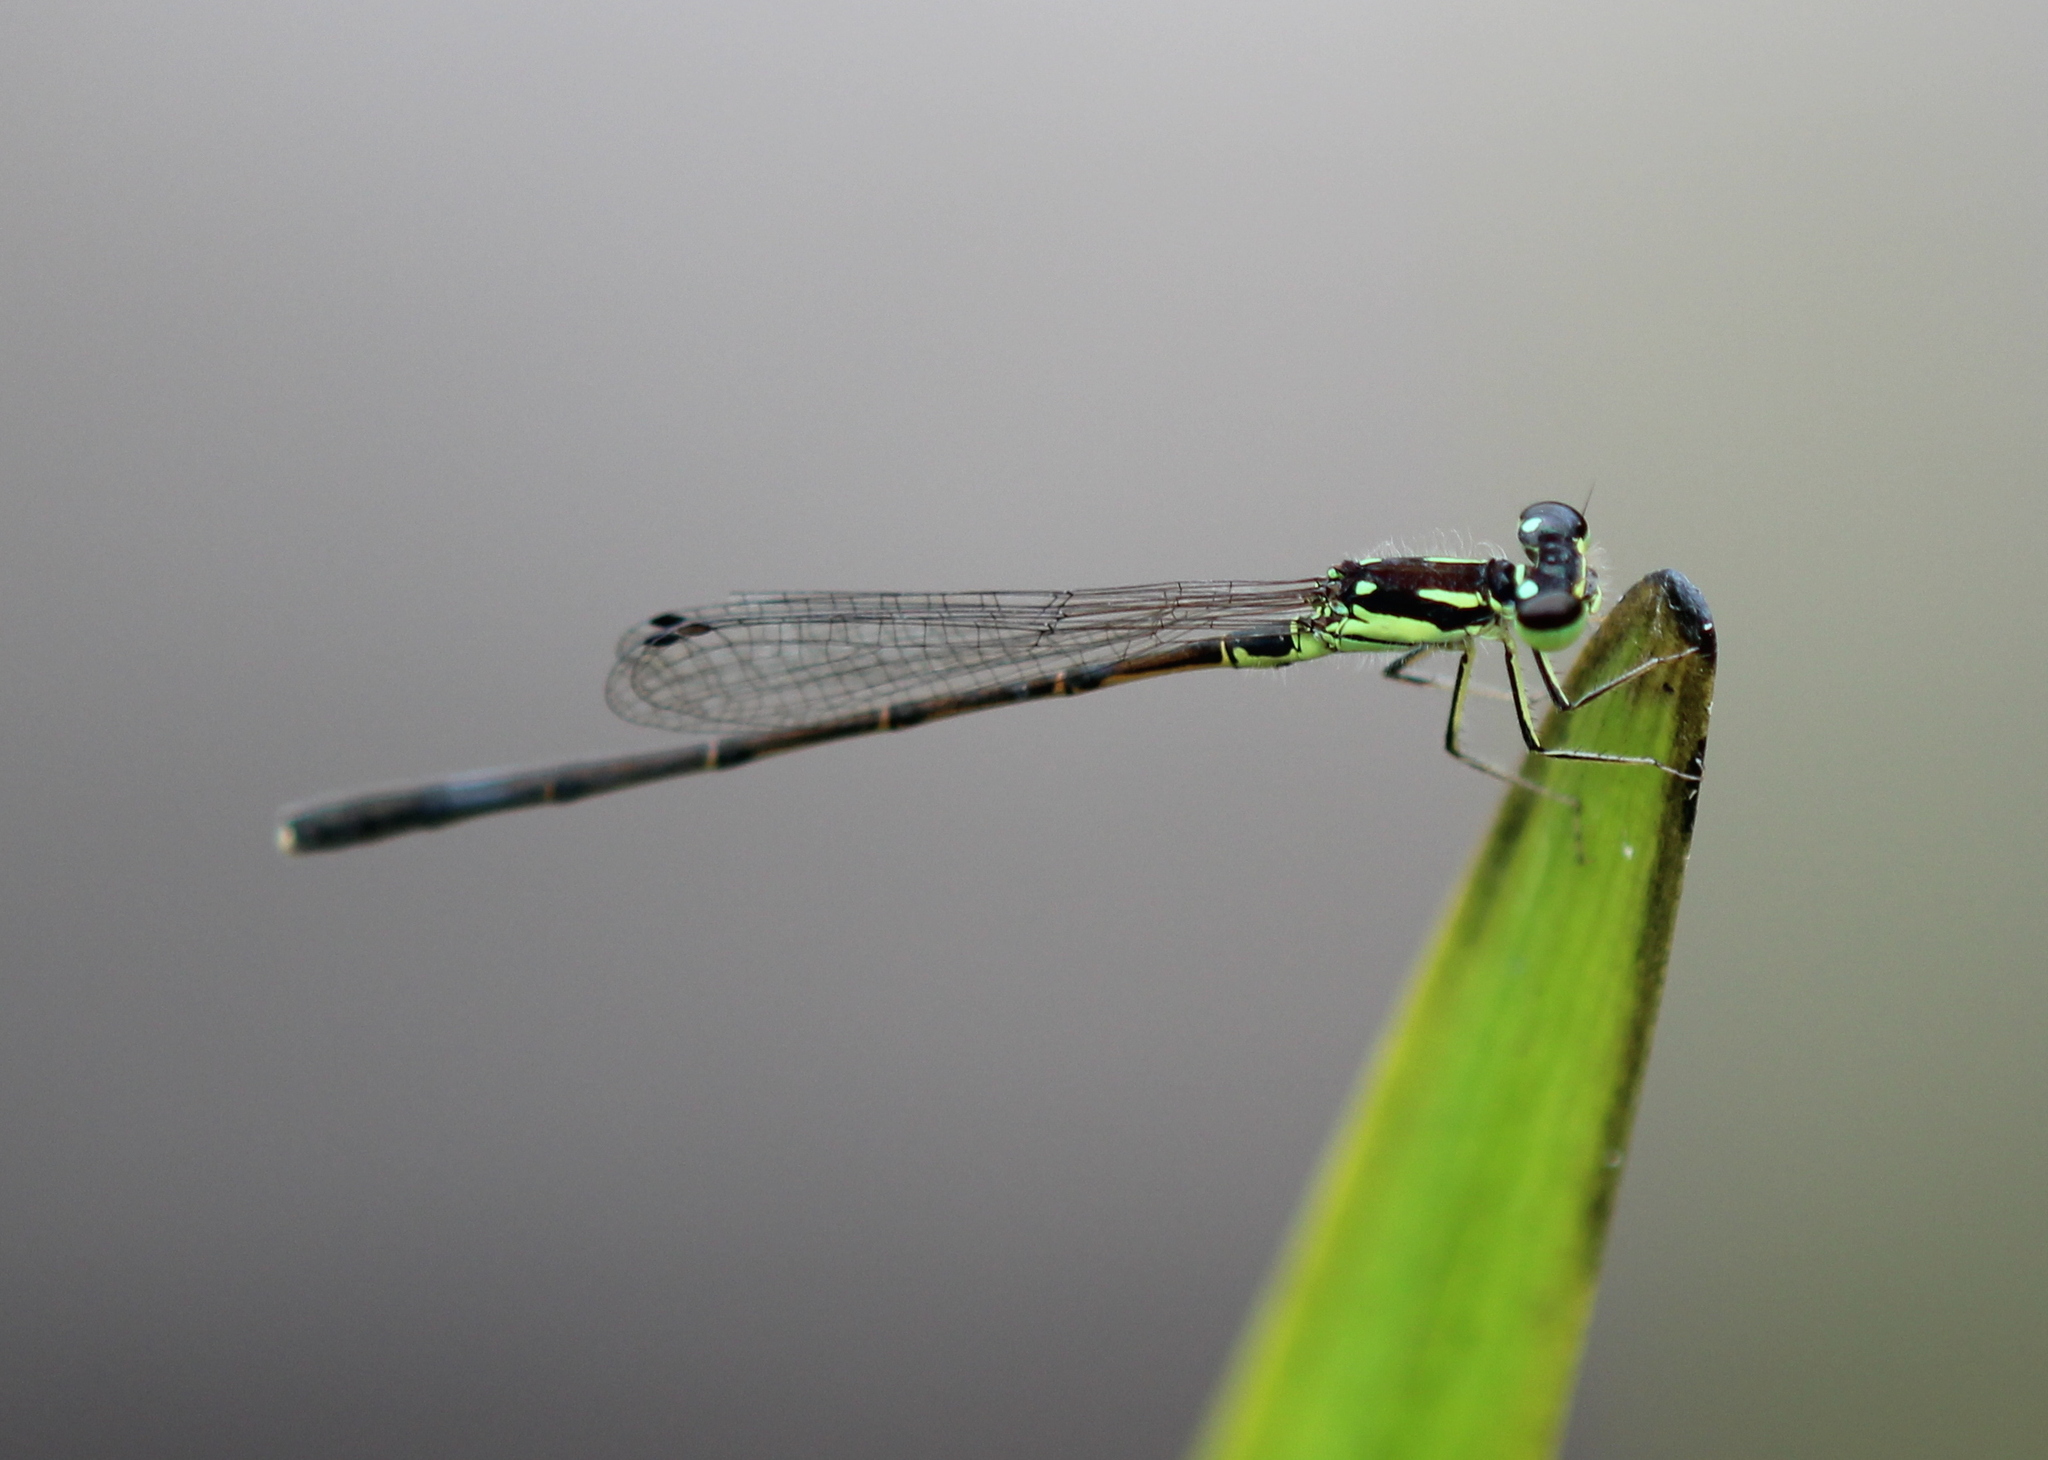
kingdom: Animalia
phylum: Arthropoda
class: Insecta
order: Odonata
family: Coenagrionidae
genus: Ischnura
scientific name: Ischnura posita
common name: Fragile forktail
